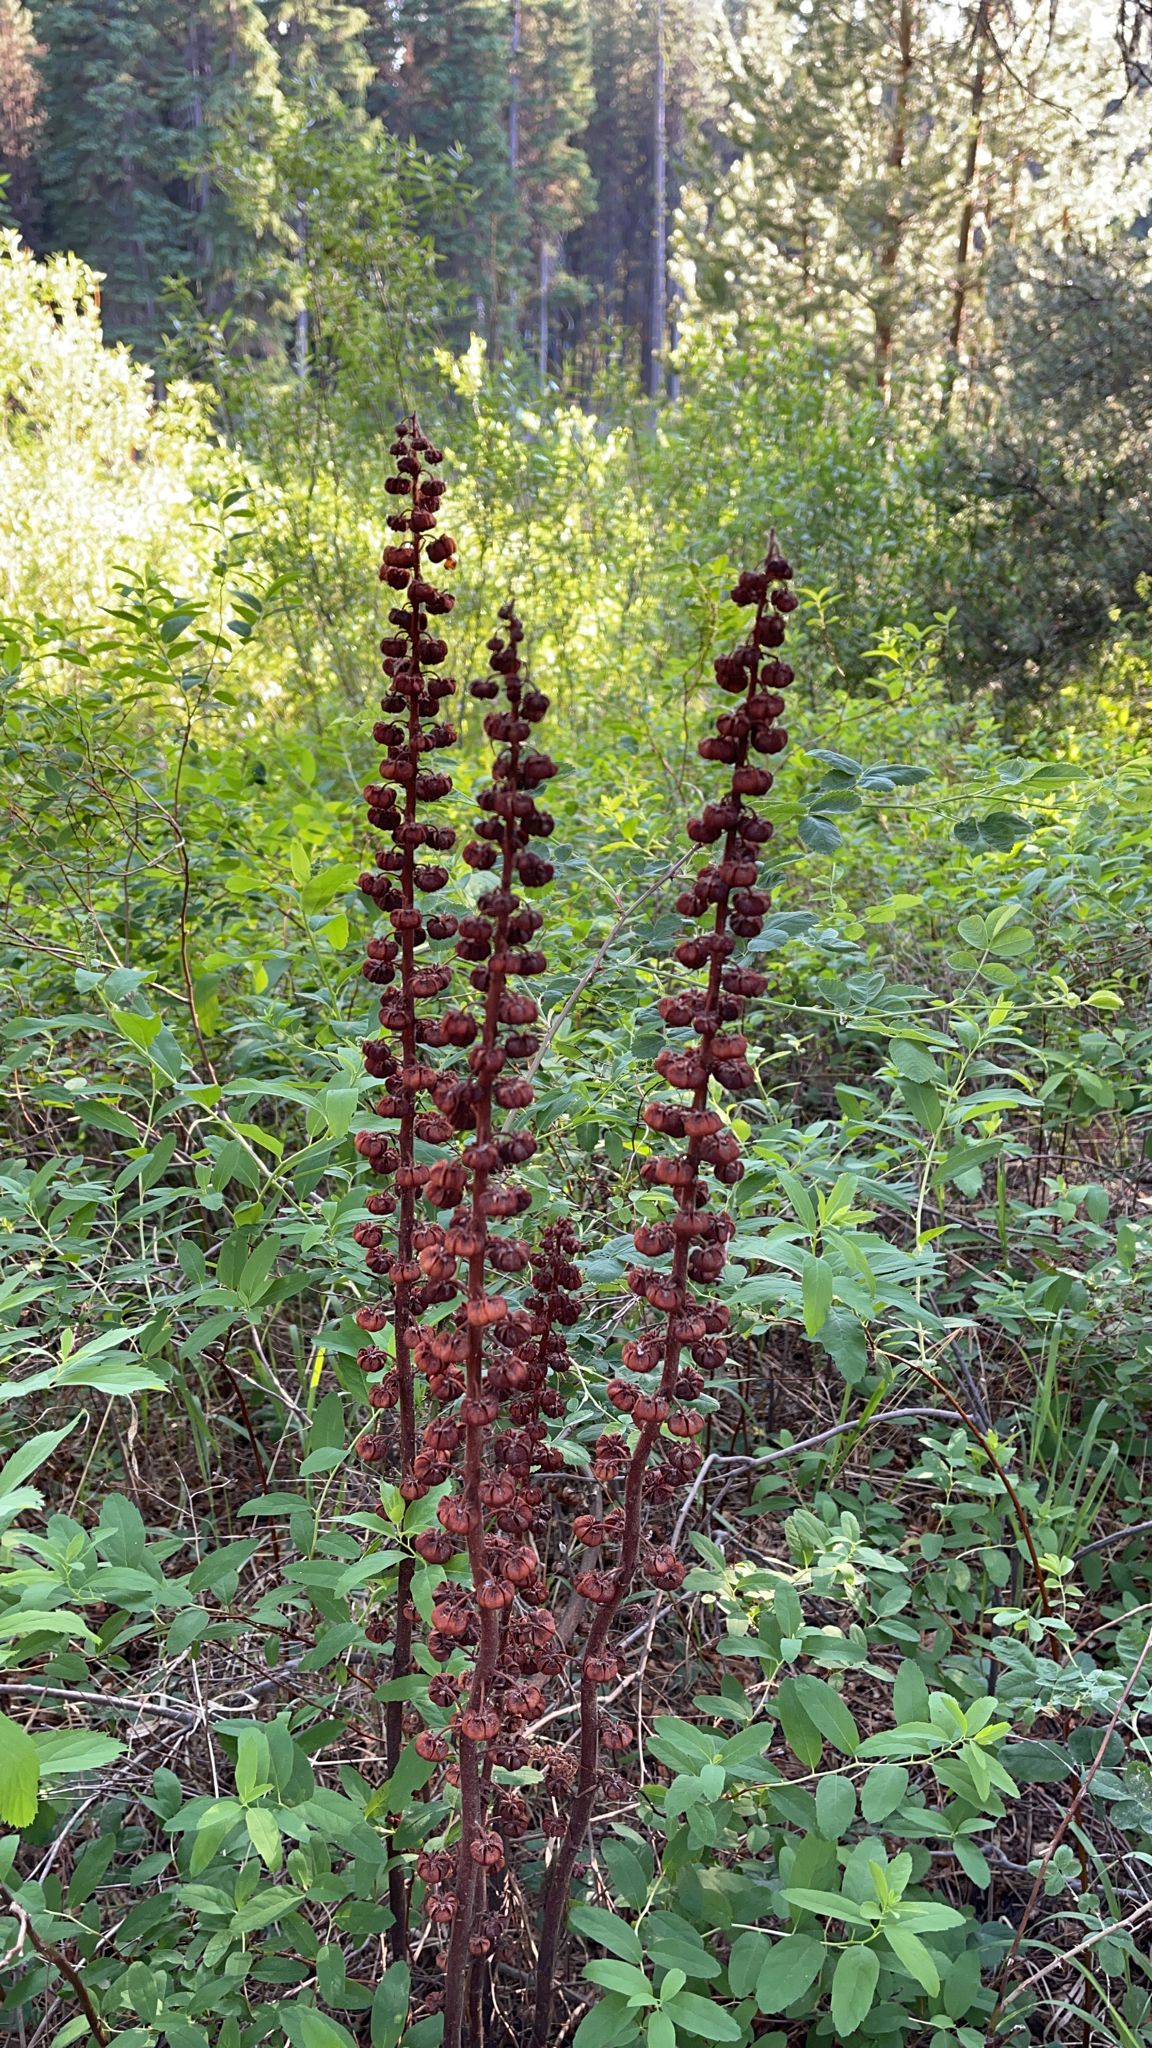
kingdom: Plantae
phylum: Tracheophyta
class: Magnoliopsida
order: Ericales
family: Ericaceae
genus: Pterospora
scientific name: Pterospora andromedea
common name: Giant bird's-nest
